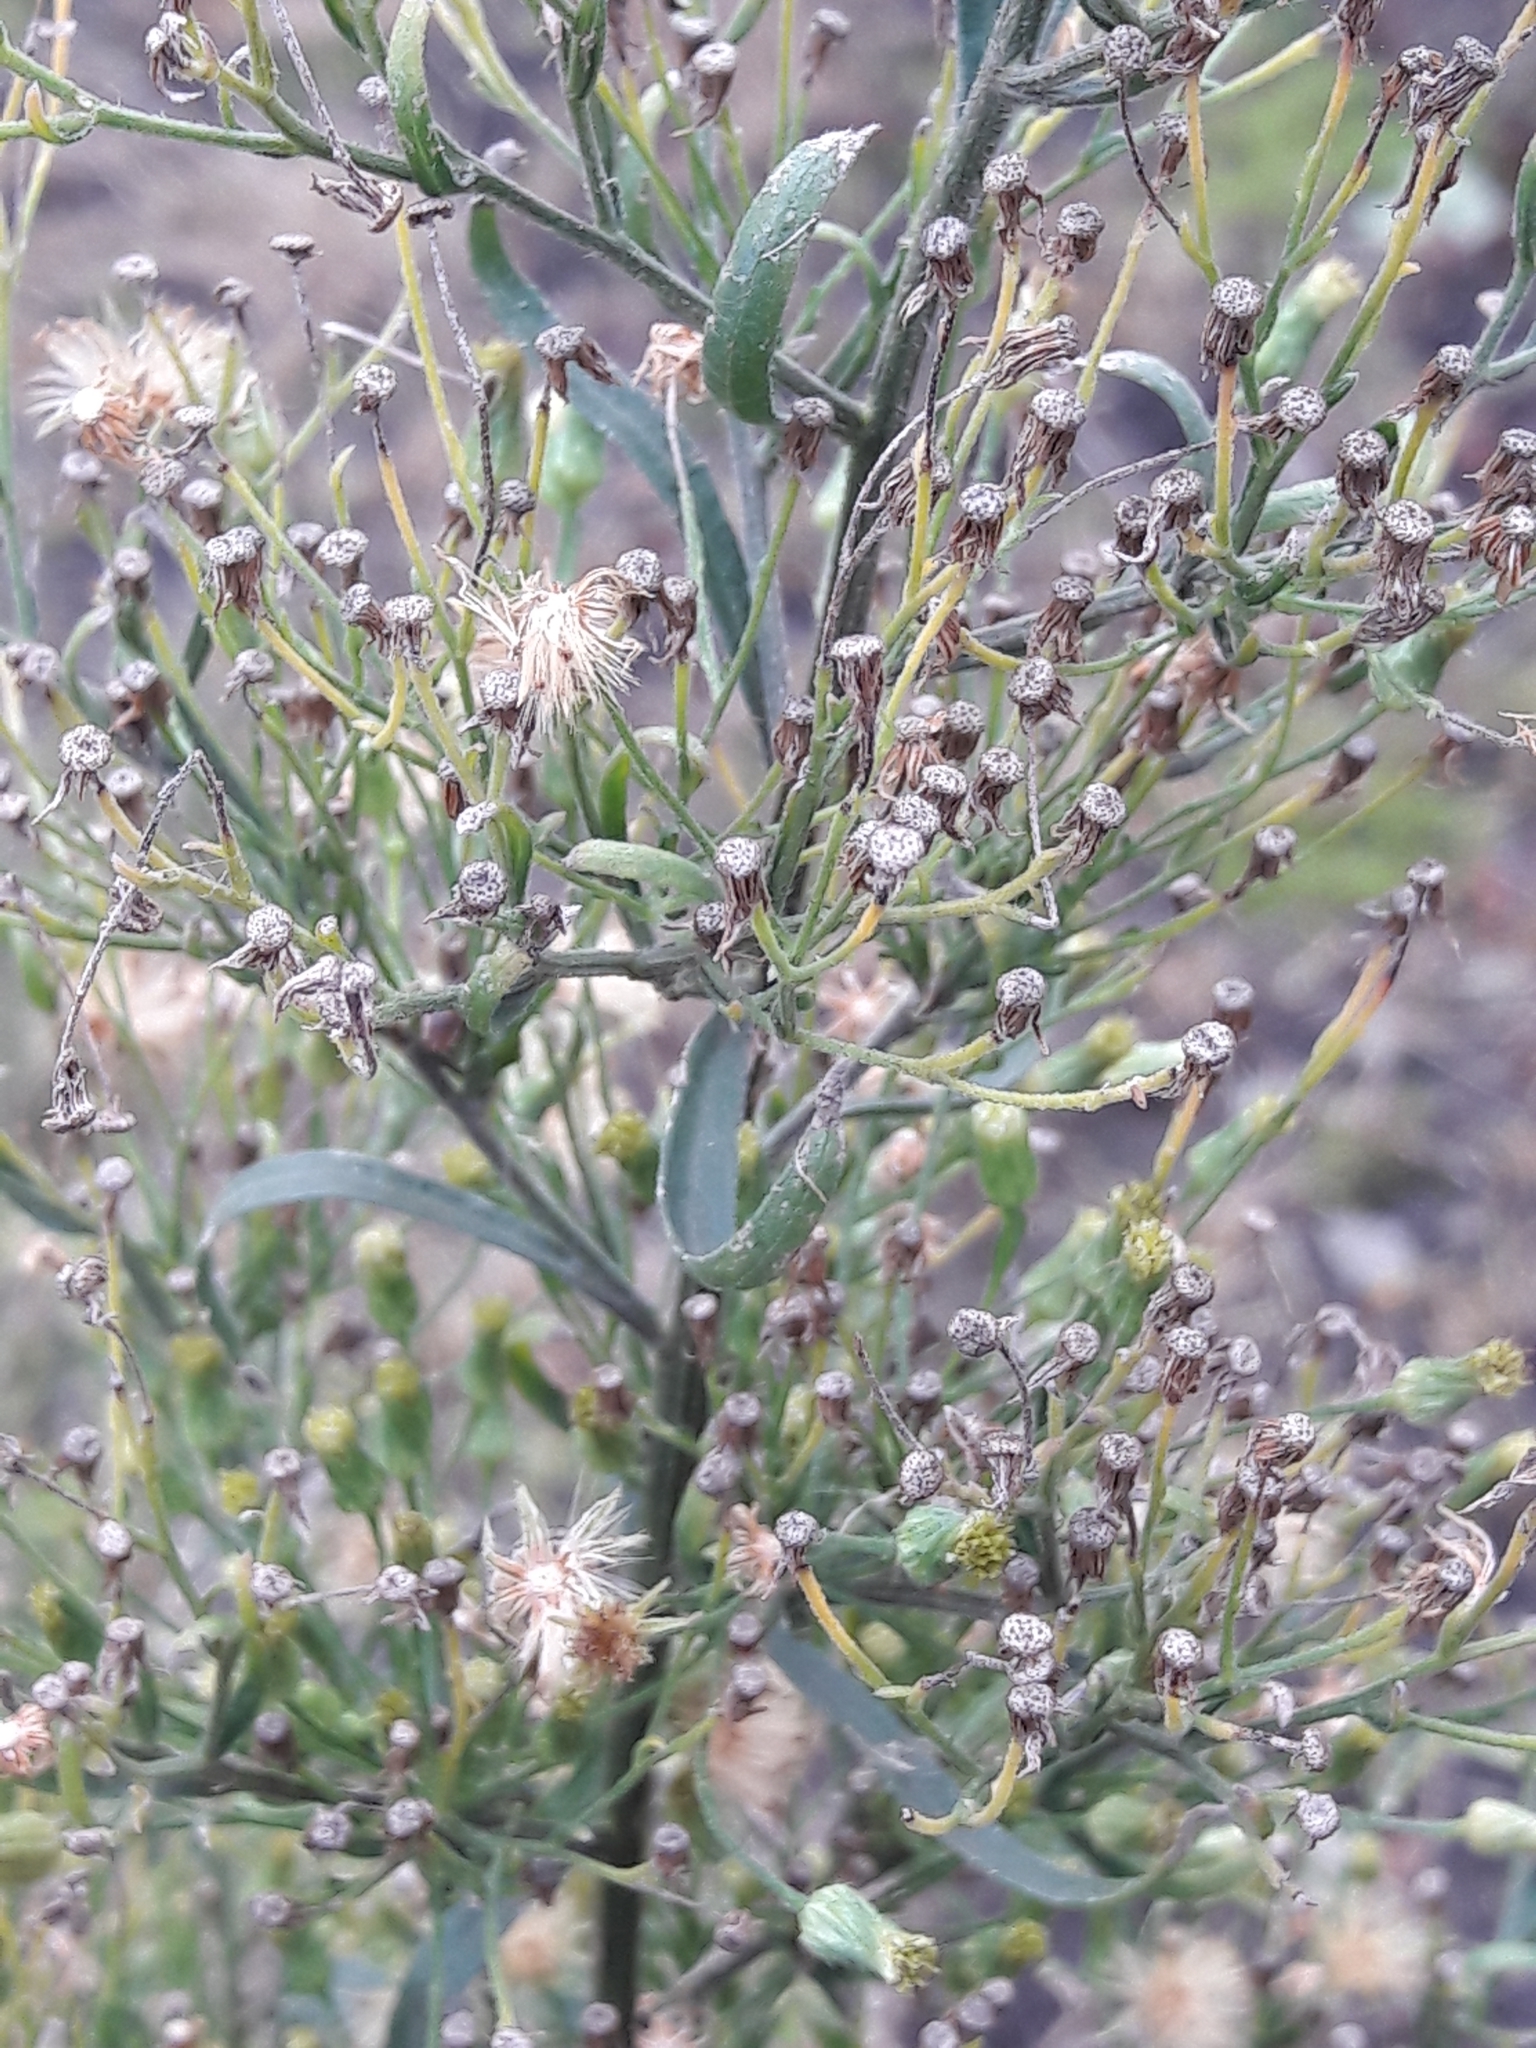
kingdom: Plantae
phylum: Tracheophyta
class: Magnoliopsida
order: Asterales
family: Asteraceae
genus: Erigeron
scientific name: Erigeron canadensis
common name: Canadian fleabane
